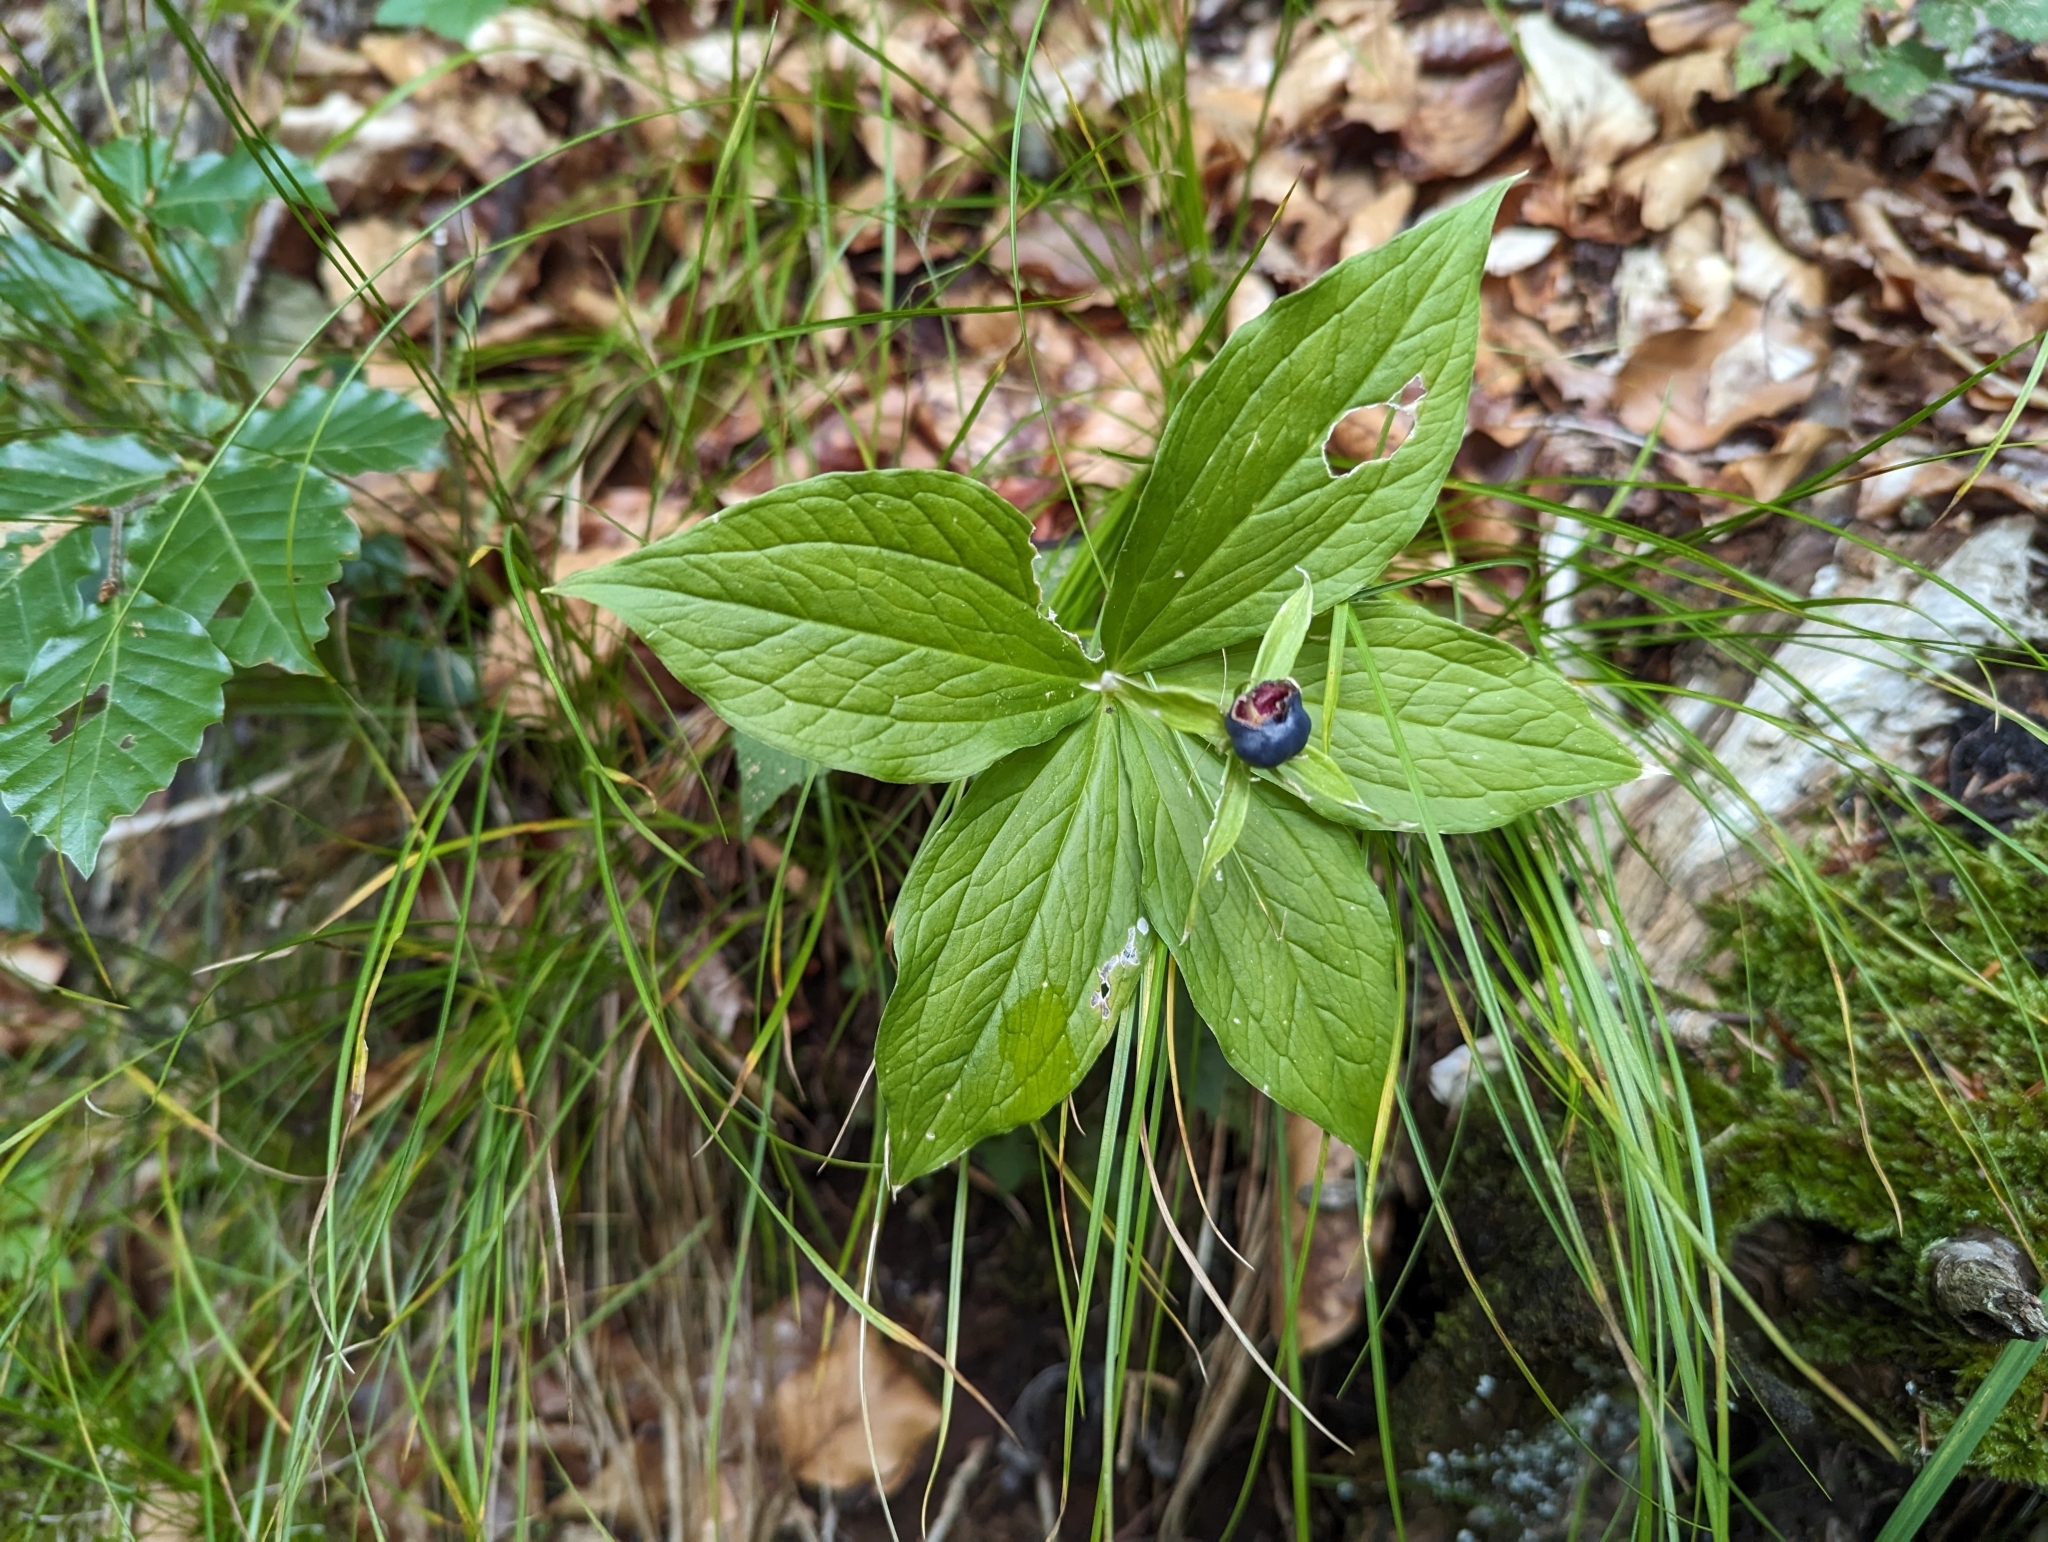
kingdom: Plantae
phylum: Tracheophyta
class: Liliopsida
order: Liliales
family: Melanthiaceae
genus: Paris
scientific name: Paris quadrifolia
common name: Herb-paris
